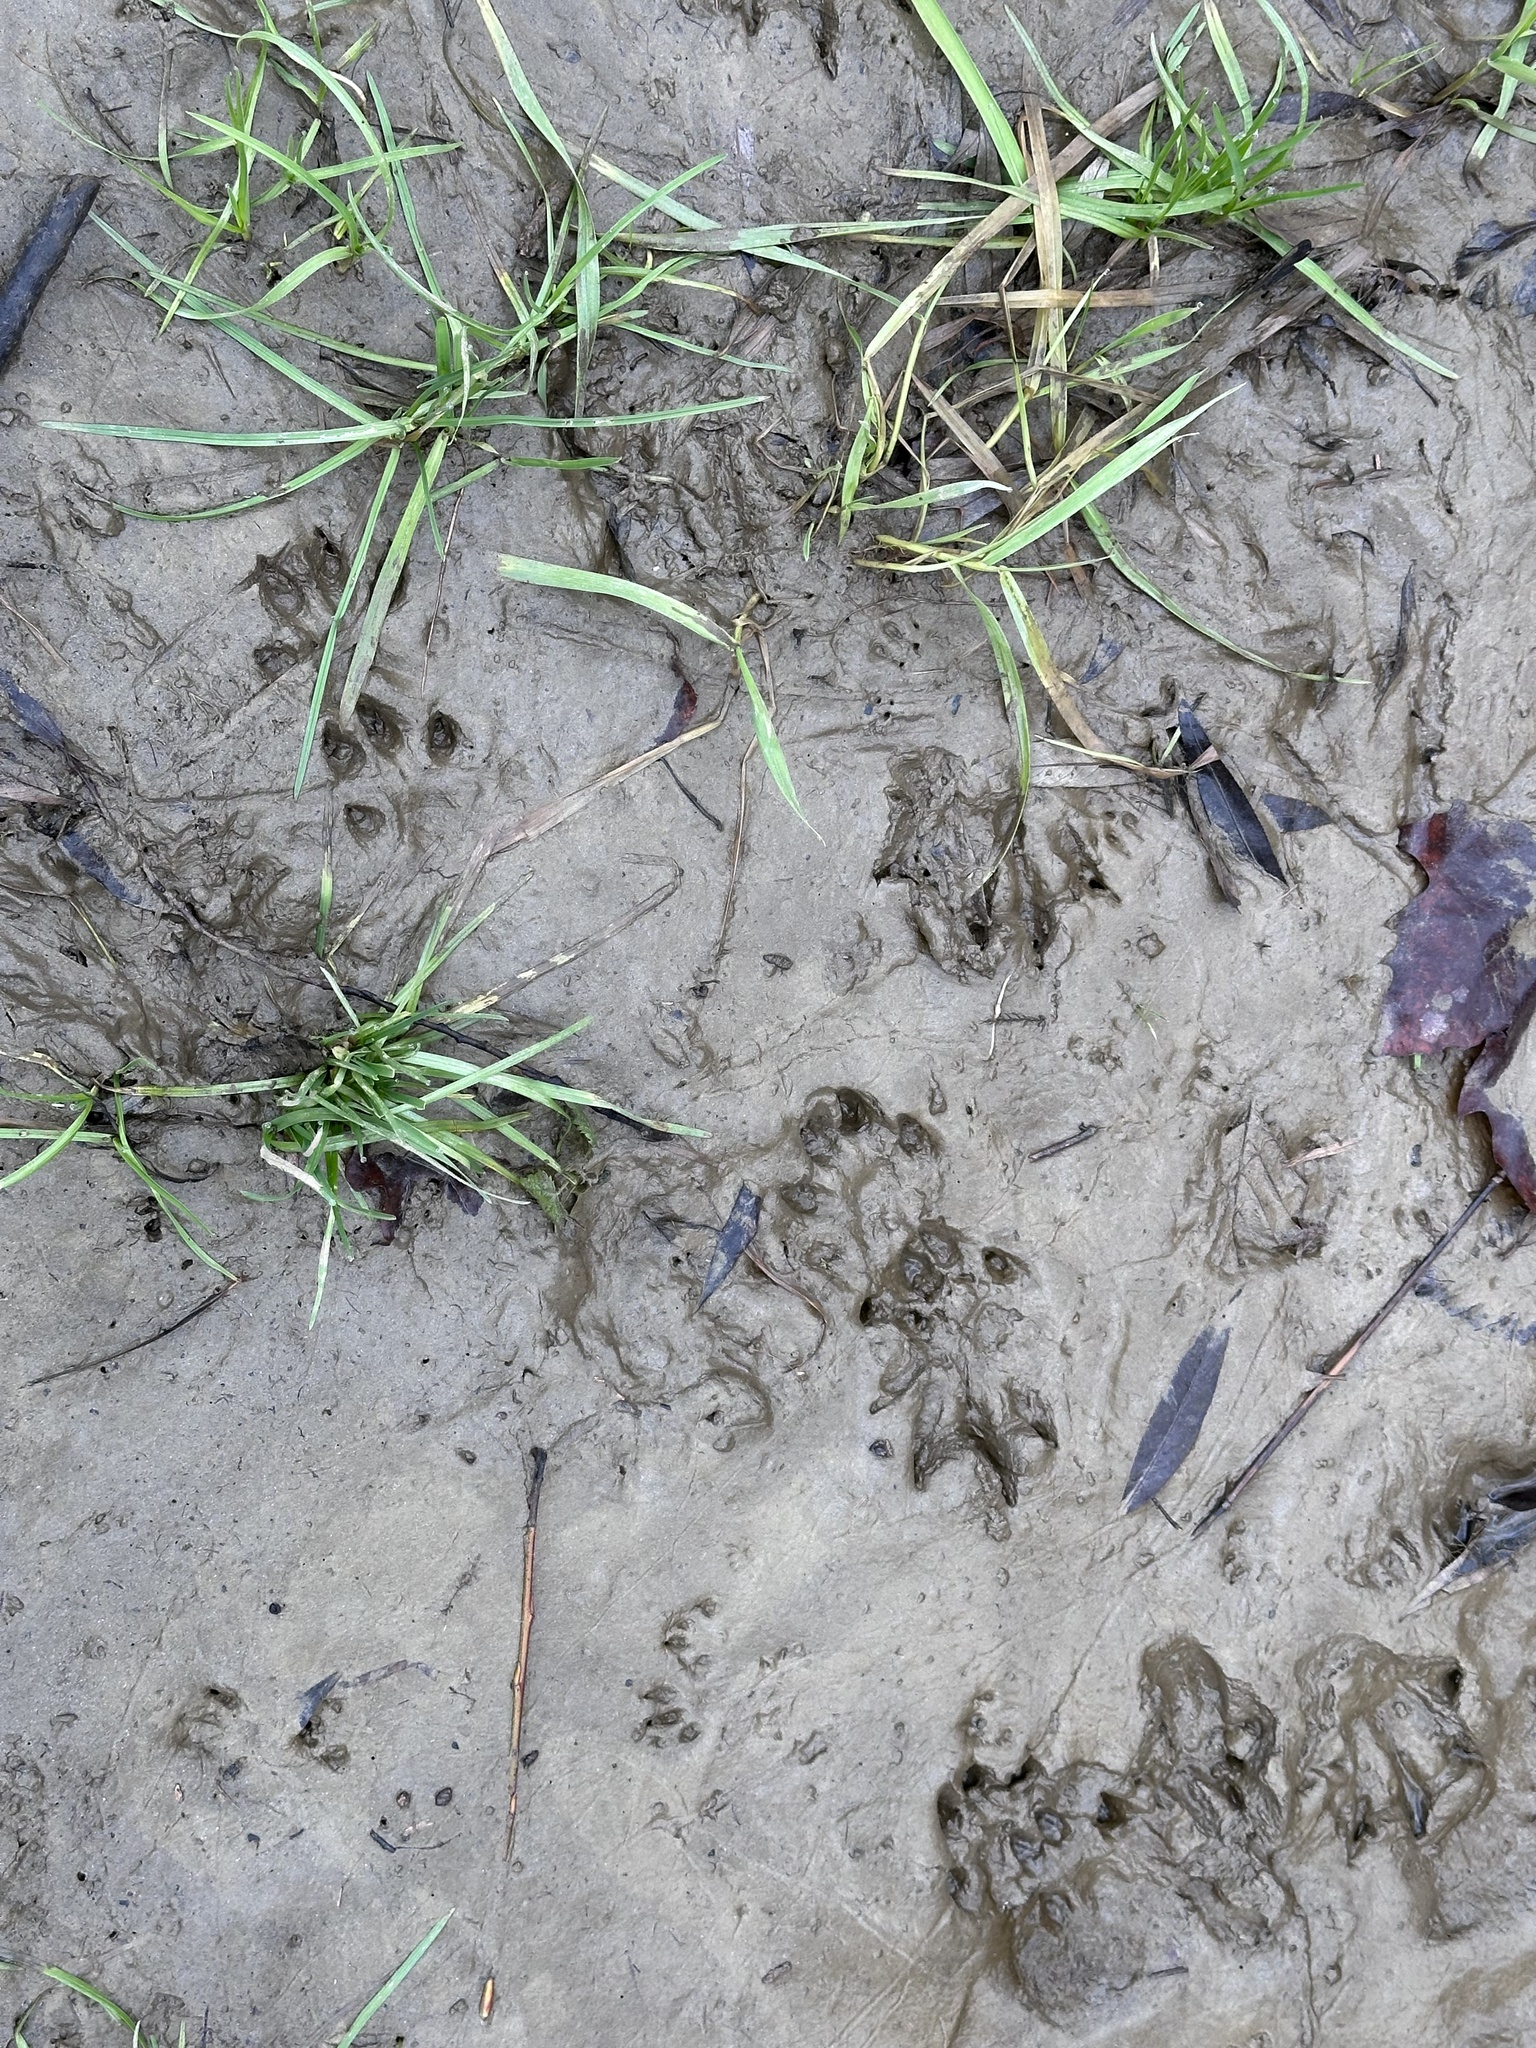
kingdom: Animalia
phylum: Chordata
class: Mammalia
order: Carnivora
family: Mustelidae
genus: Lutra
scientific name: Lutra lutra
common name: European otter
